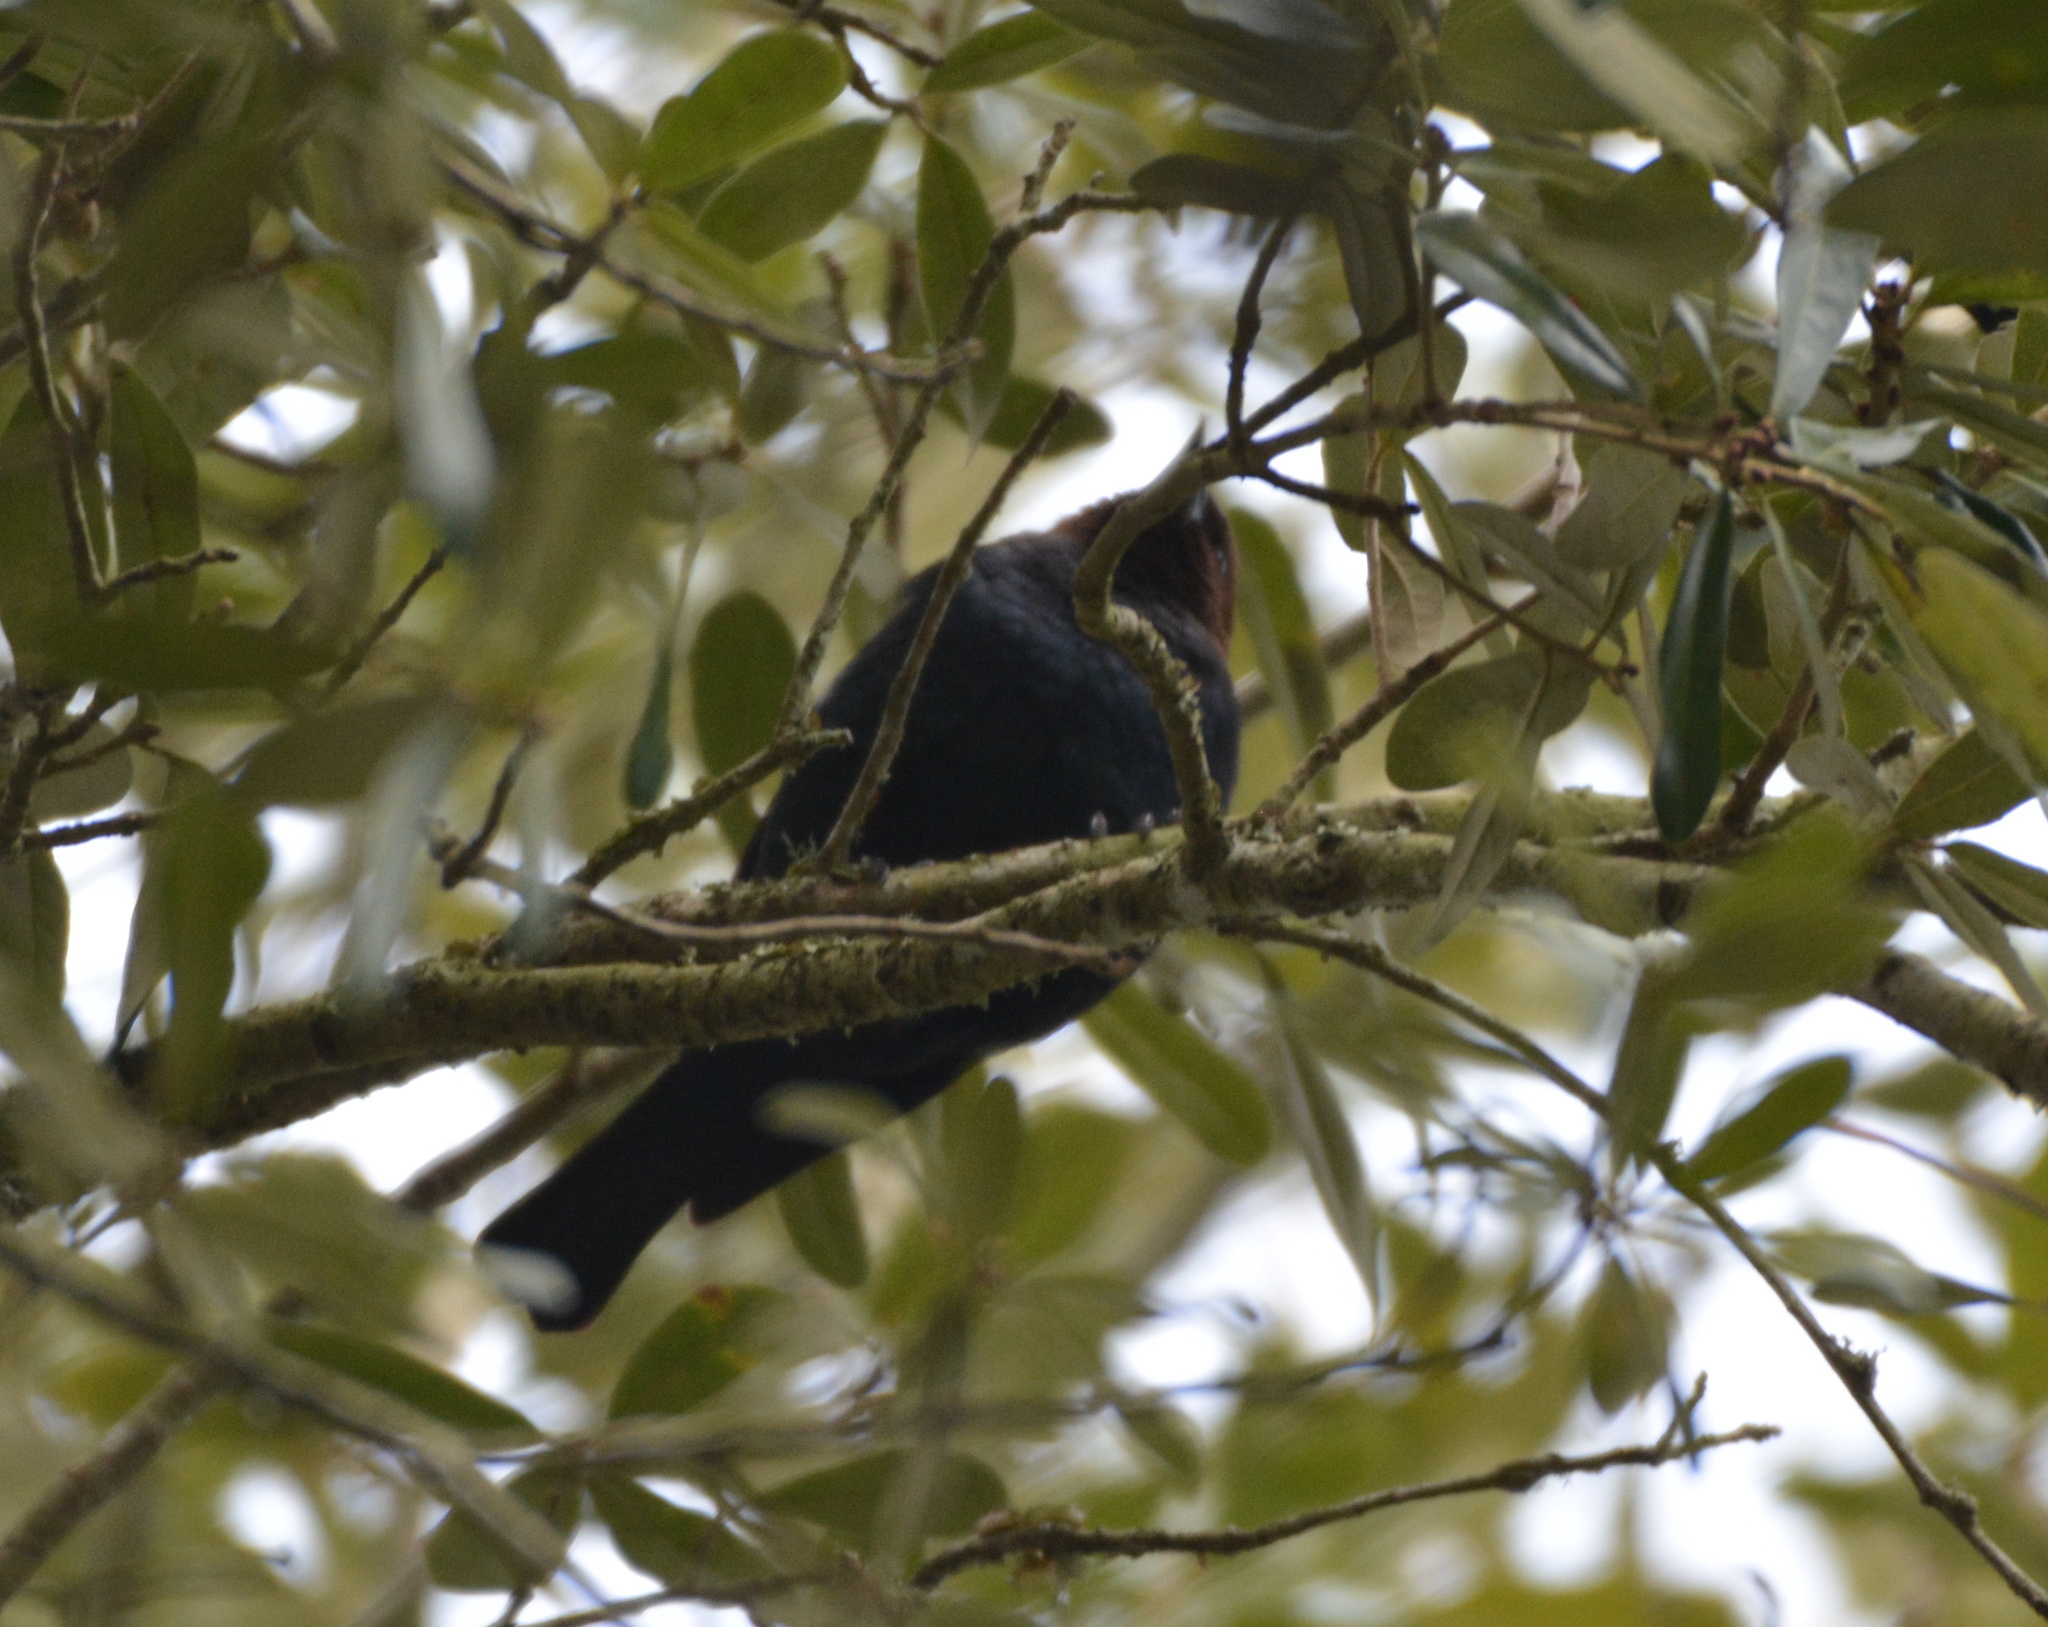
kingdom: Animalia
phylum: Chordata
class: Aves
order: Passeriformes
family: Icteridae
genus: Molothrus
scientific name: Molothrus ater
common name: Brown-headed cowbird
